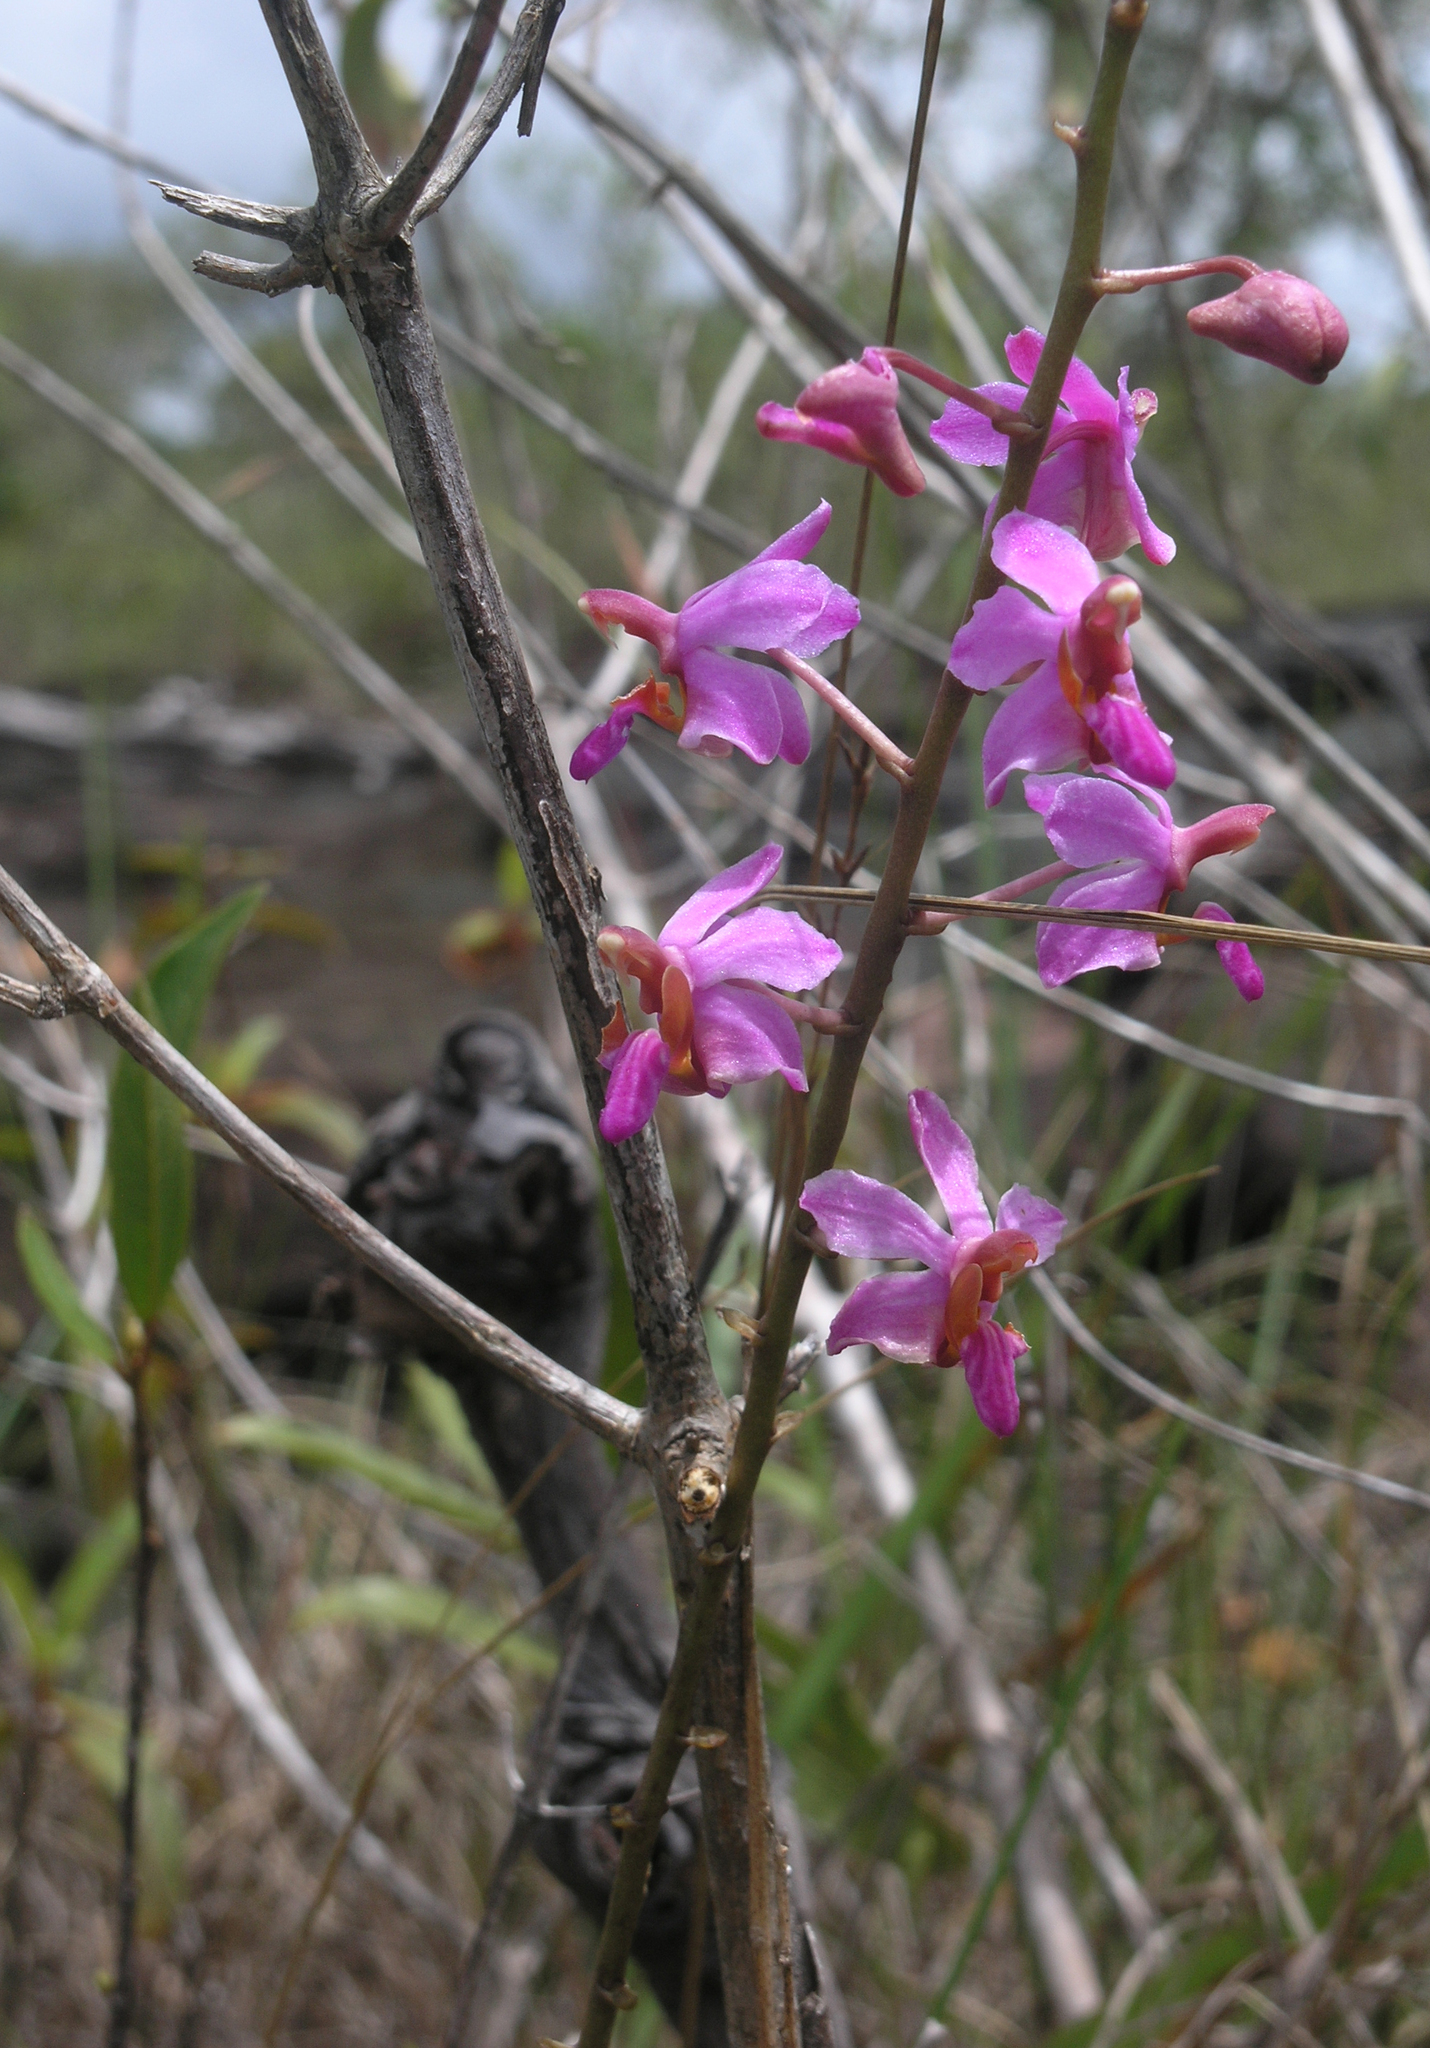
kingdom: Plantae
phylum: Tracheophyta
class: Liliopsida
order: Asparagales
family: Orchidaceae
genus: Phalaenopsis
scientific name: Phalaenopsis pulcherrima
